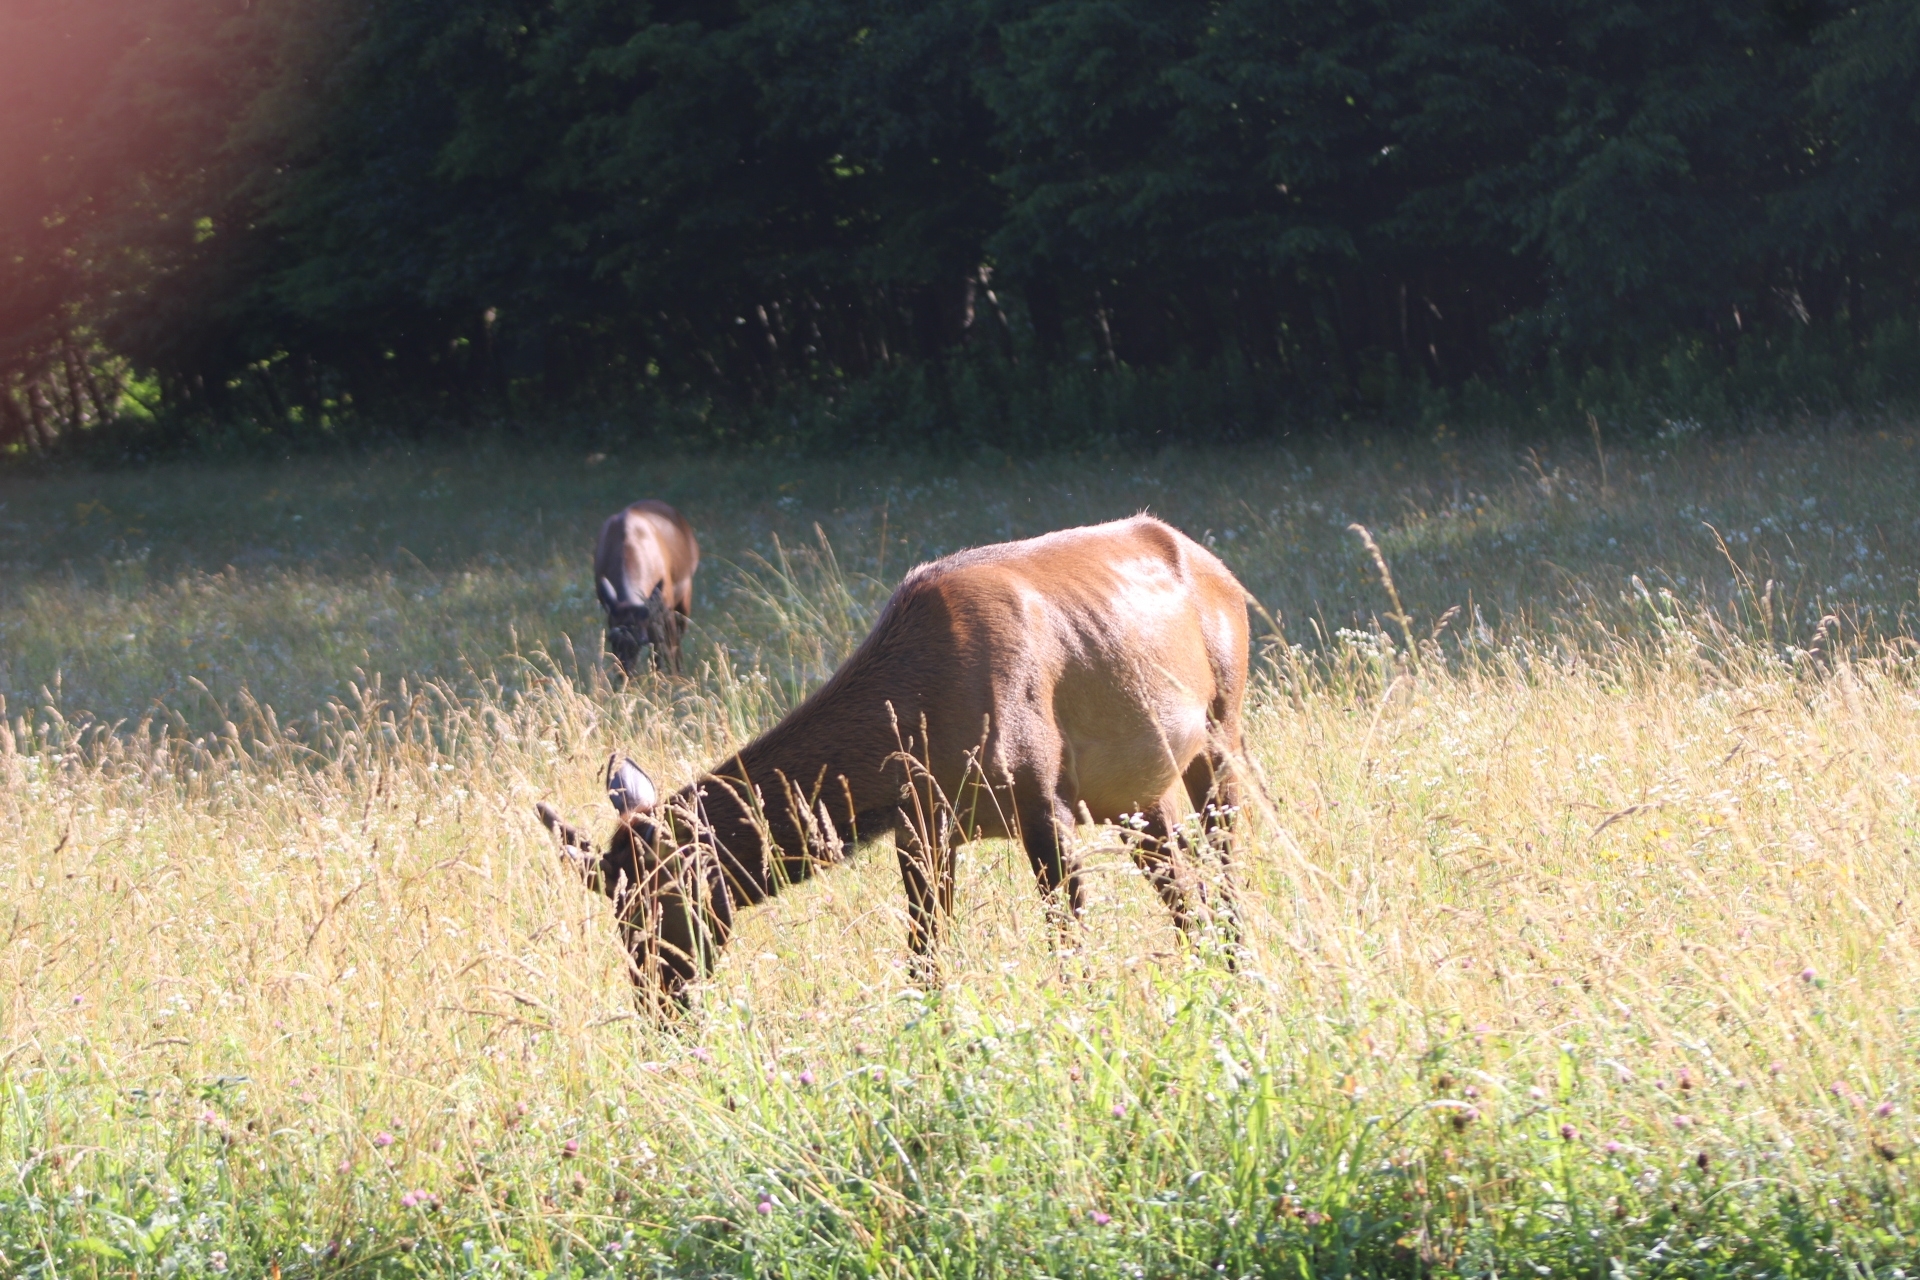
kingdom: Animalia
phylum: Chordata
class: Mammalia
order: Artiodactyla
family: Cervidae
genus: Cervus
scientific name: Cervus elaphus
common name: Red deer
